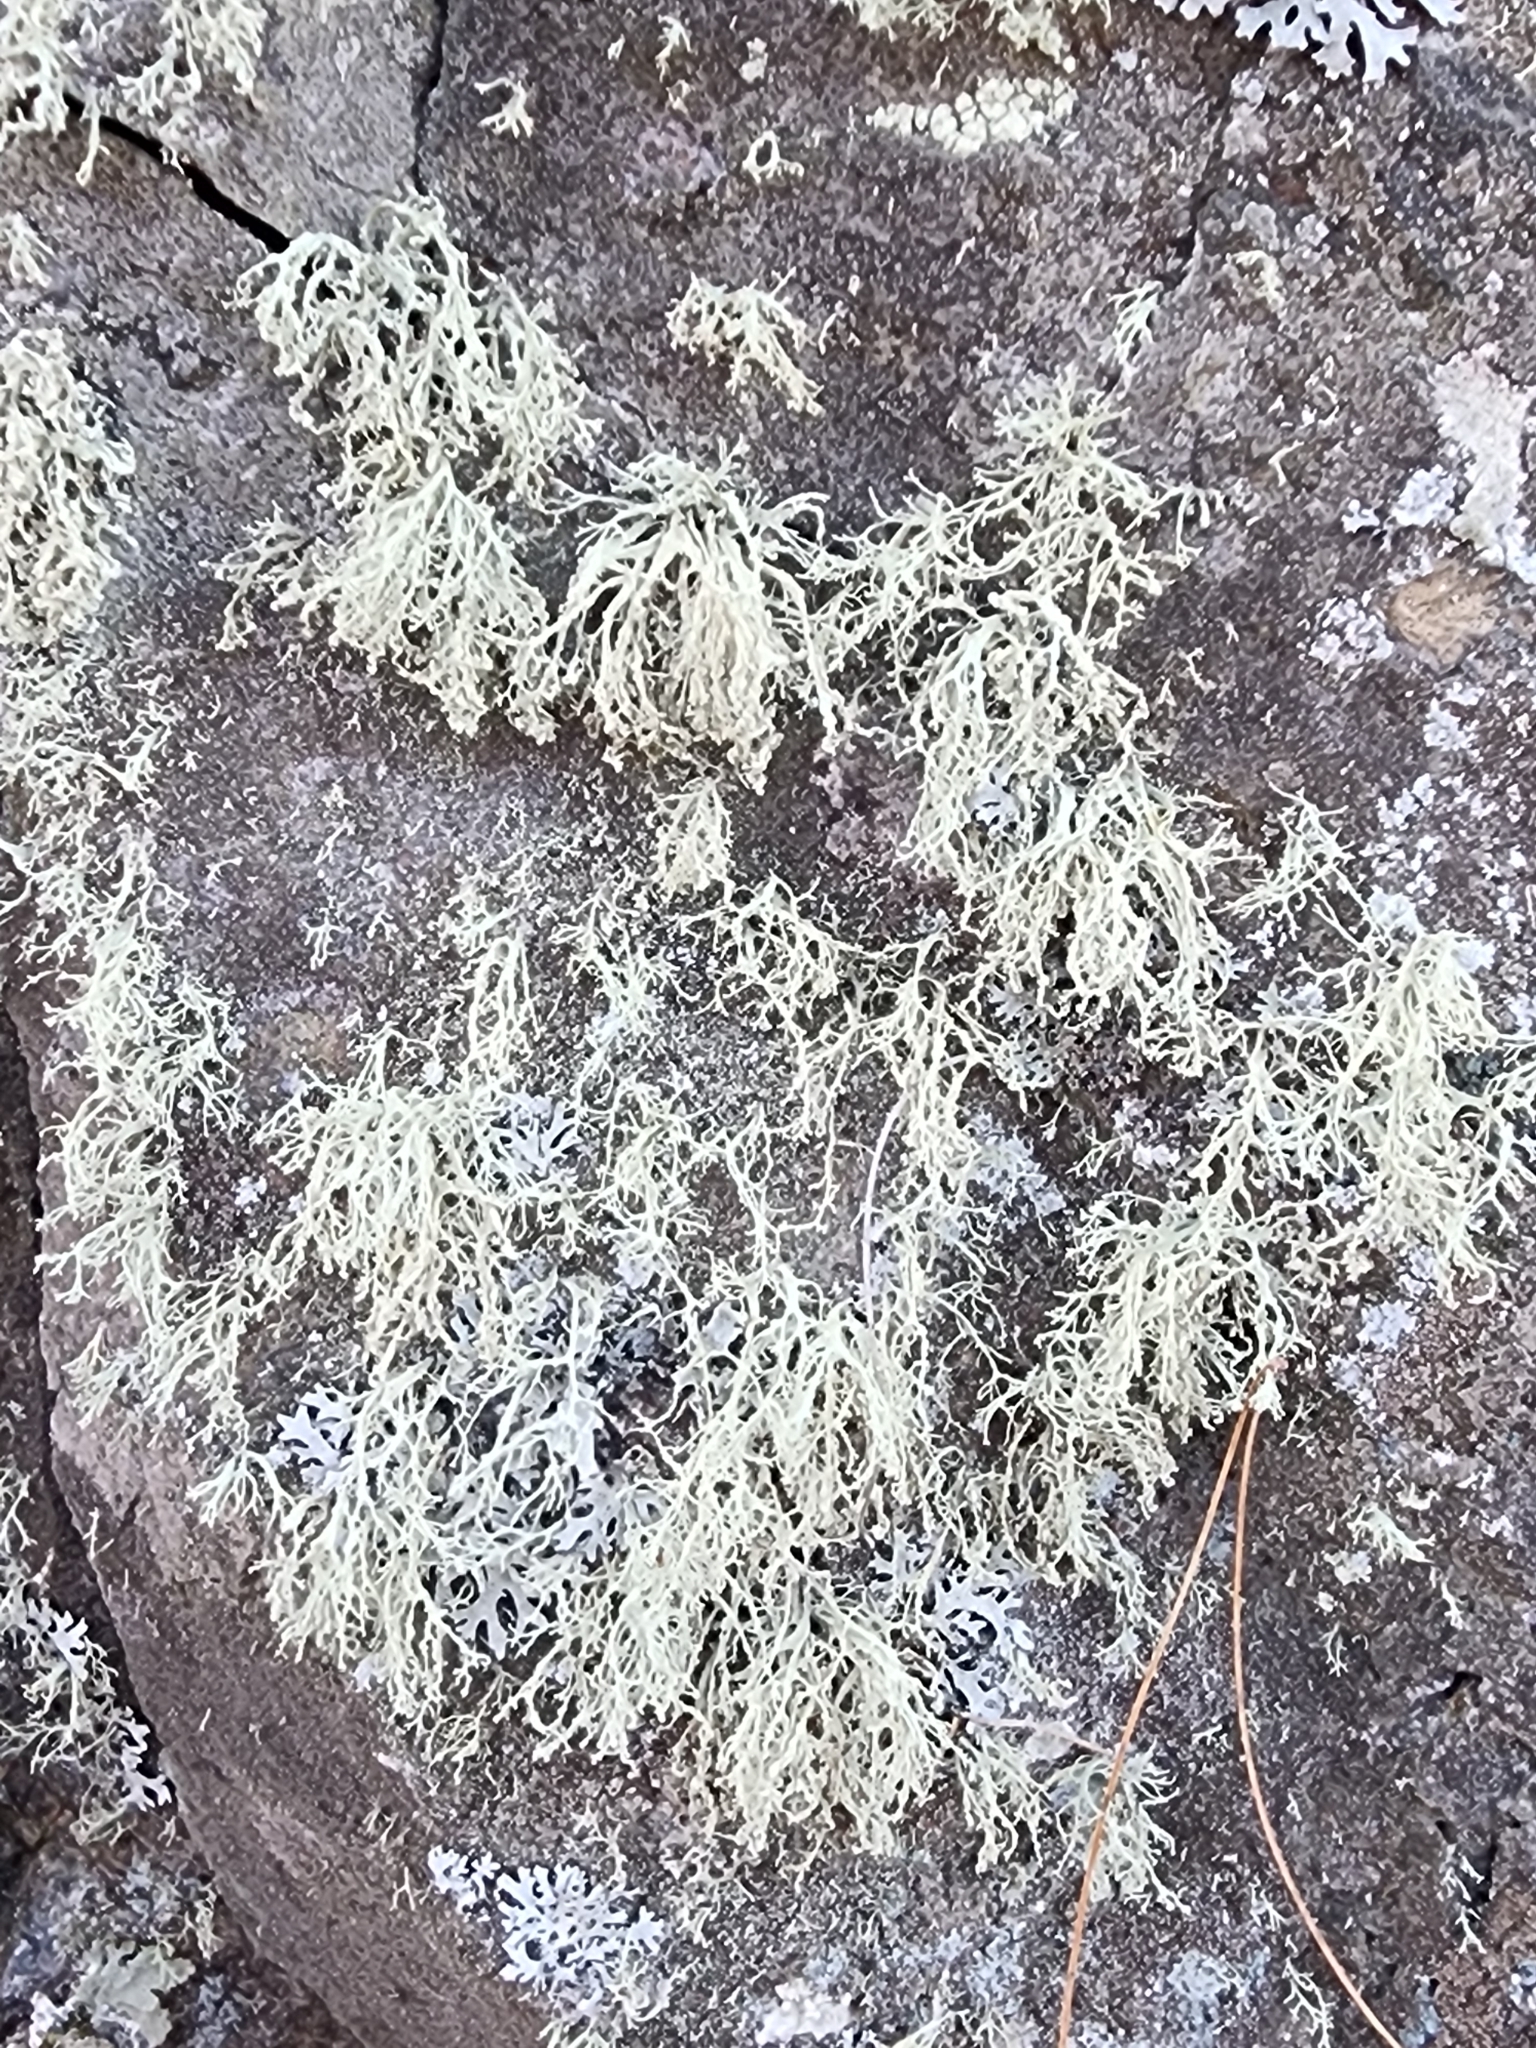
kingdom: Fungi
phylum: Ascomycota
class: Lecanoromycetes
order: Lecanorales
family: Ramalinaceae
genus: Ramalina
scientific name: Ramalina intermedia
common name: Rock bushy lichen
